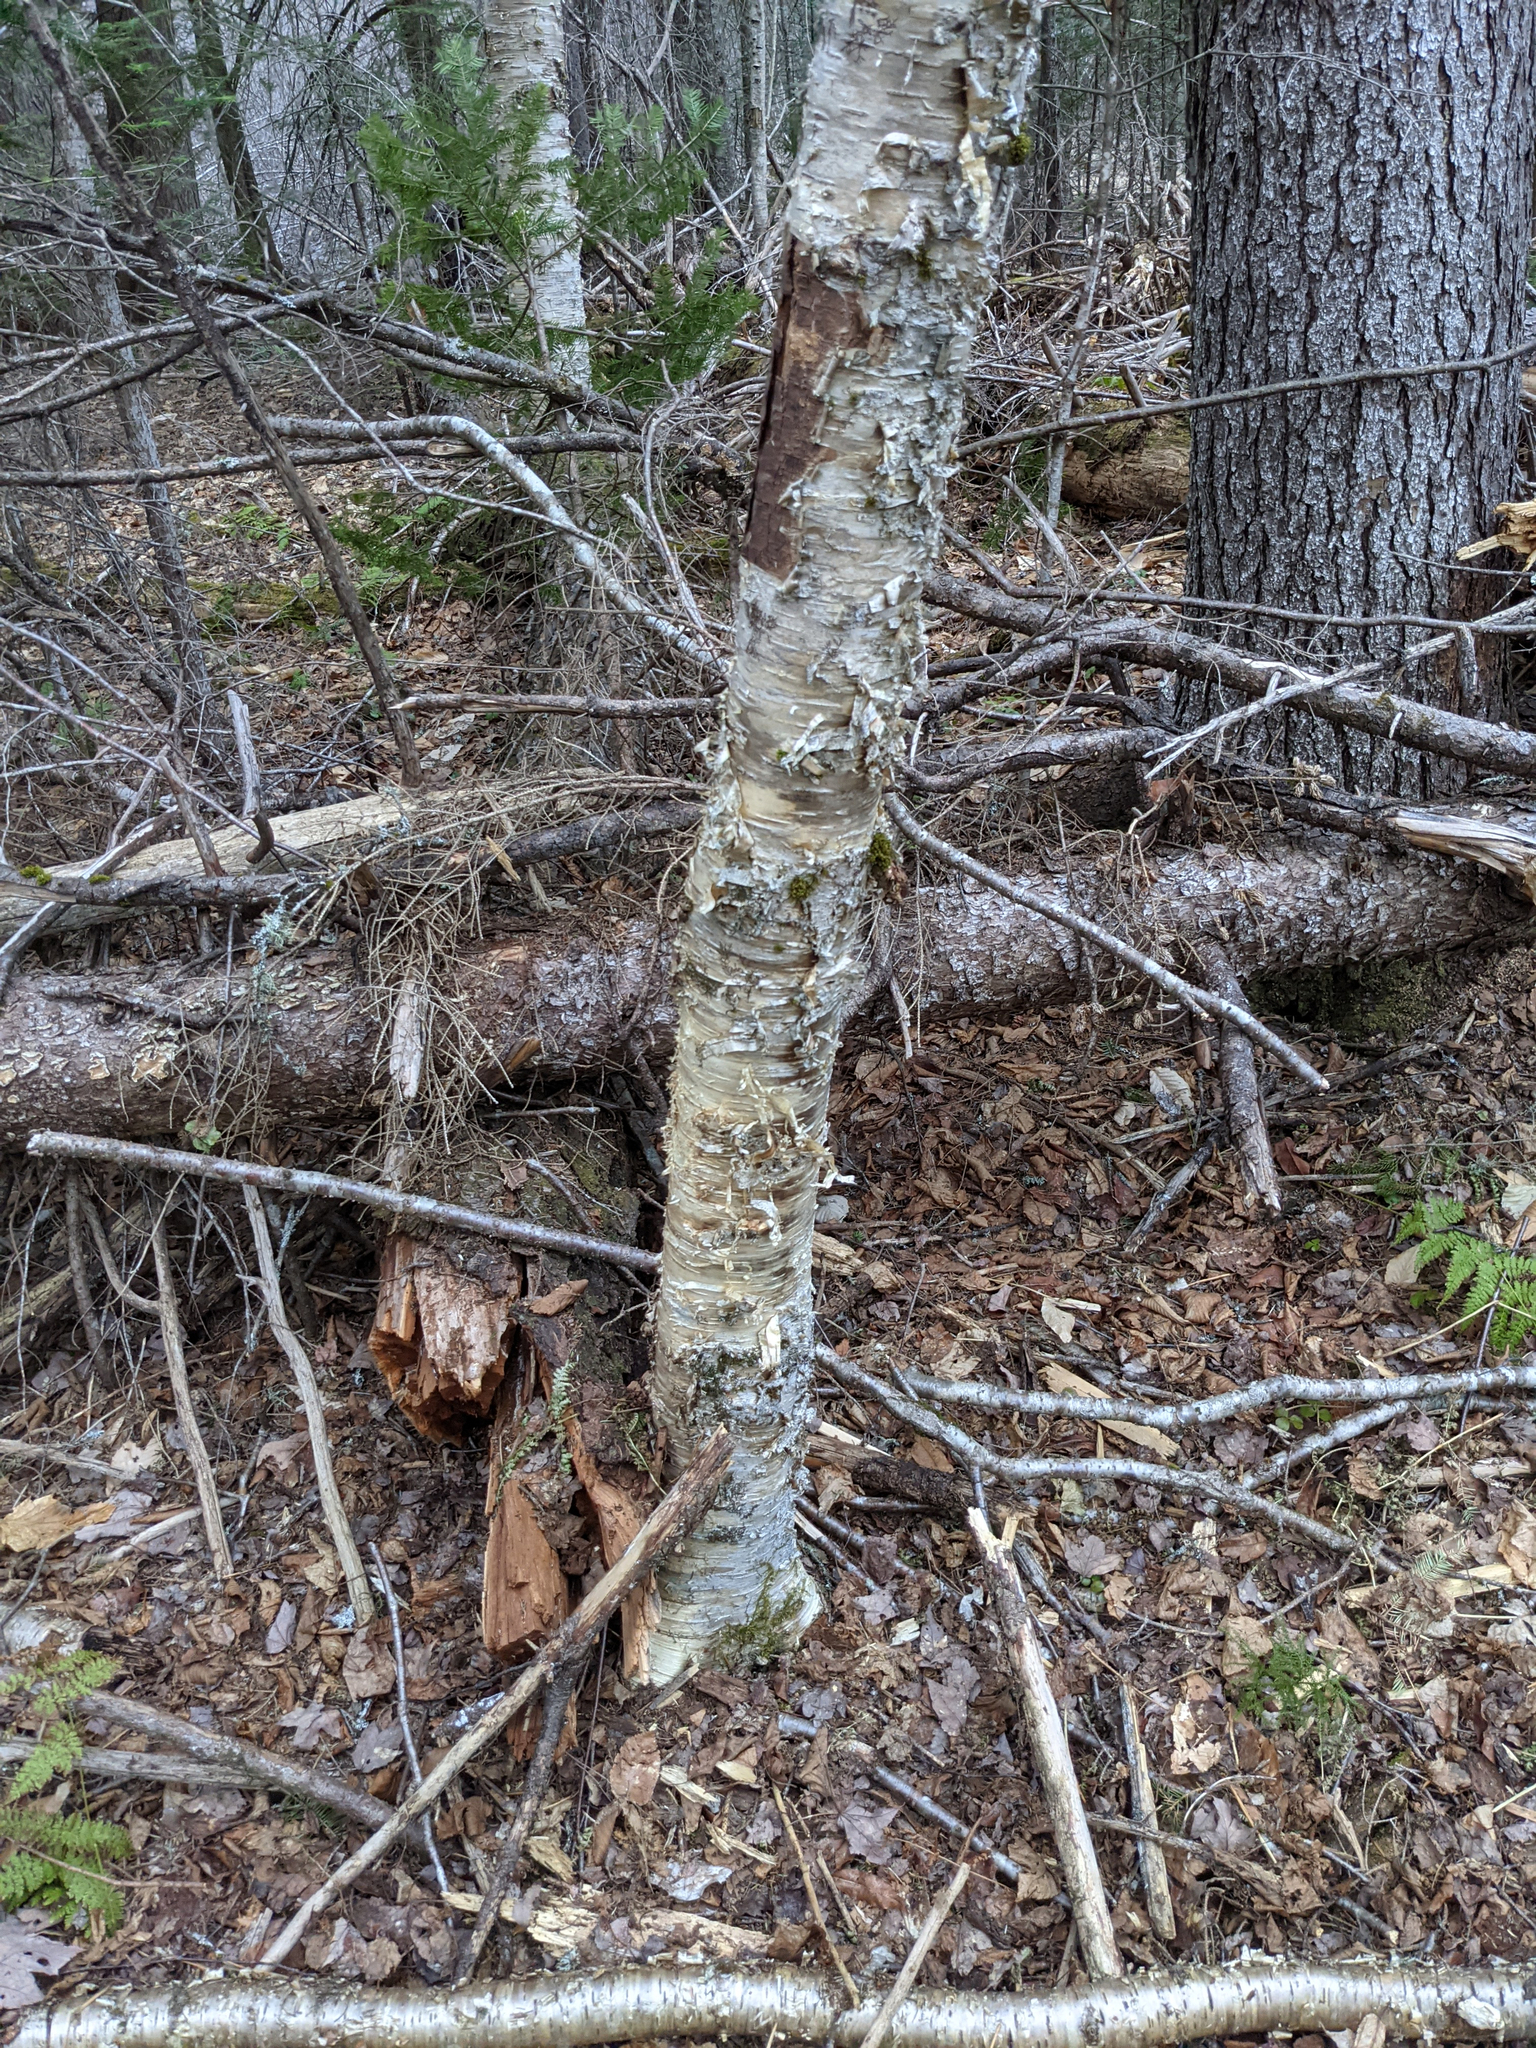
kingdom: Plantae
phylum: Tracheophyta
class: Magnoliopsida
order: Fagales
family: Betulaceae
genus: Betula
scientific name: Betula alleghaniensis
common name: Yellow birch
